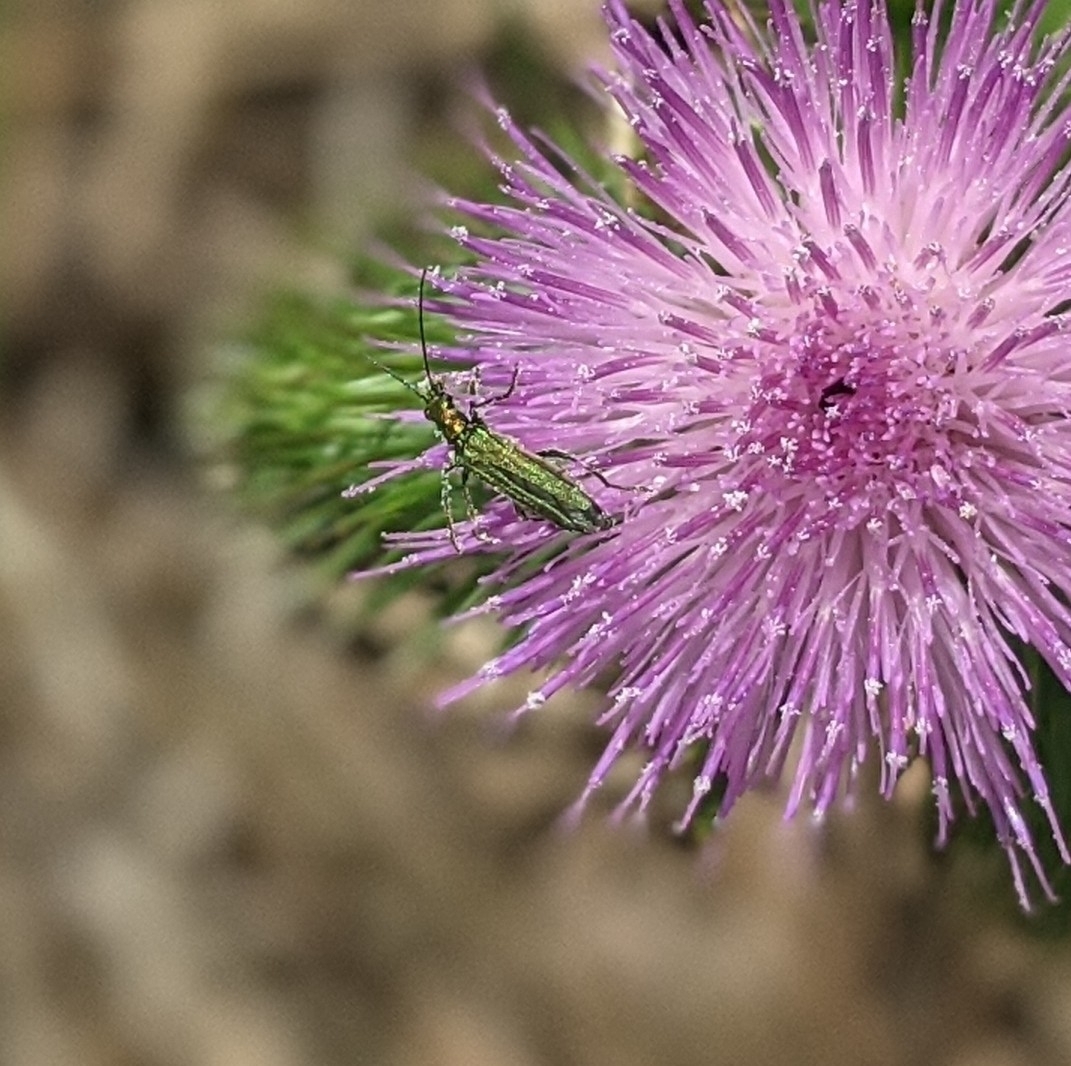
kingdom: Animalia
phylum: Arthropoda
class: Insecta
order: Coleoptera
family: Oedemeridae
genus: Oedemera
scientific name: Oedemera nobilis
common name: Swollen-thighed beetle
